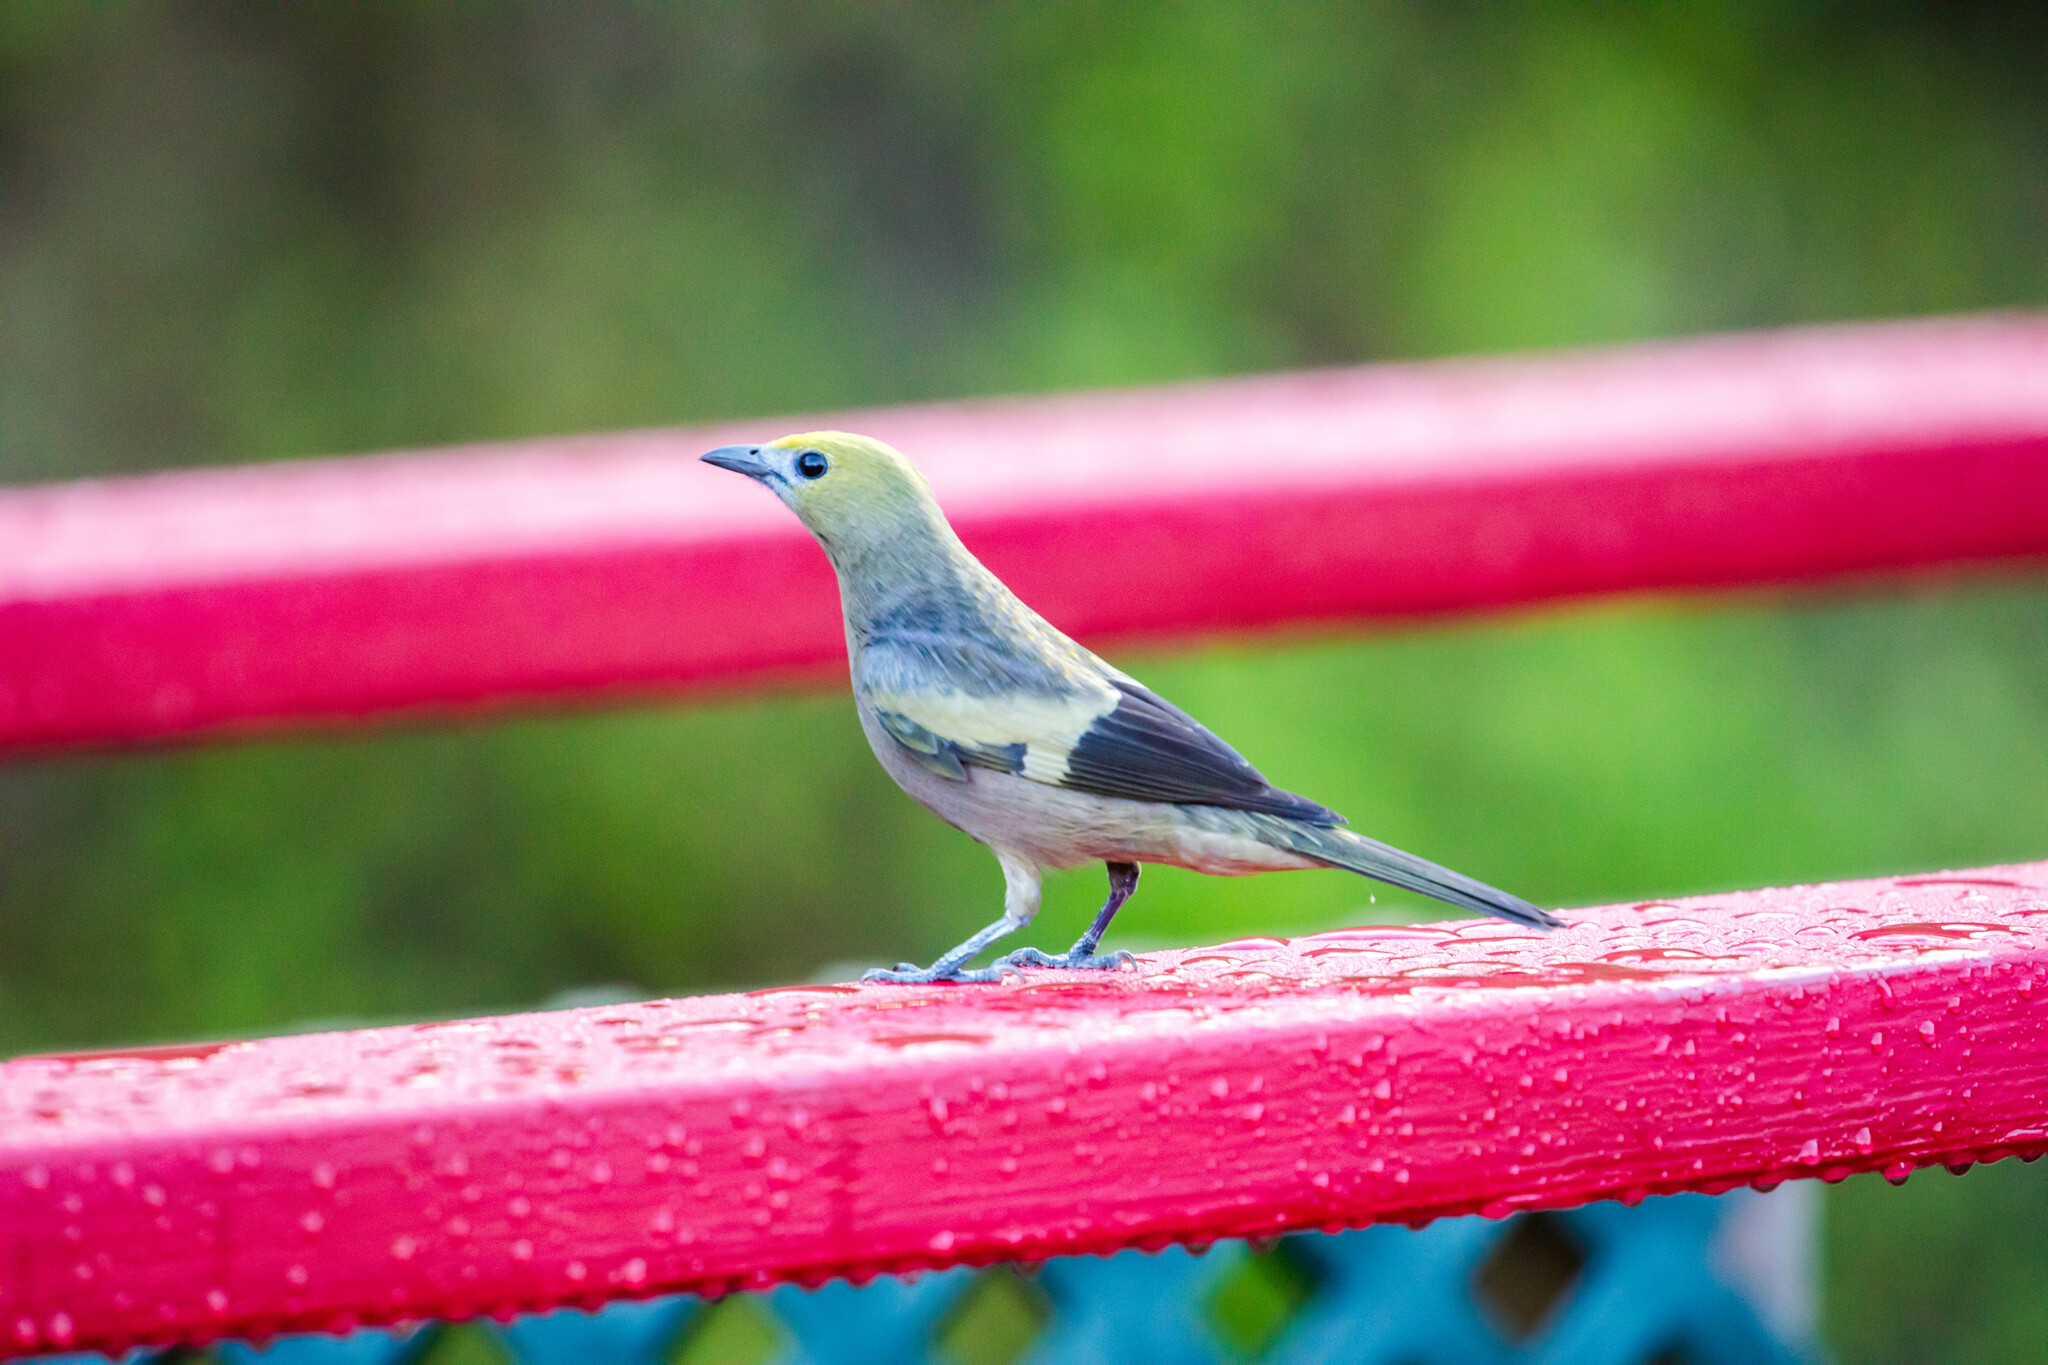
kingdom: Animalia
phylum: Chordata
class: Aves
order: Passeriformes
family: Thraupidae
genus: Thraupis
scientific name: Thraupis palmarum
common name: Palm tanager
